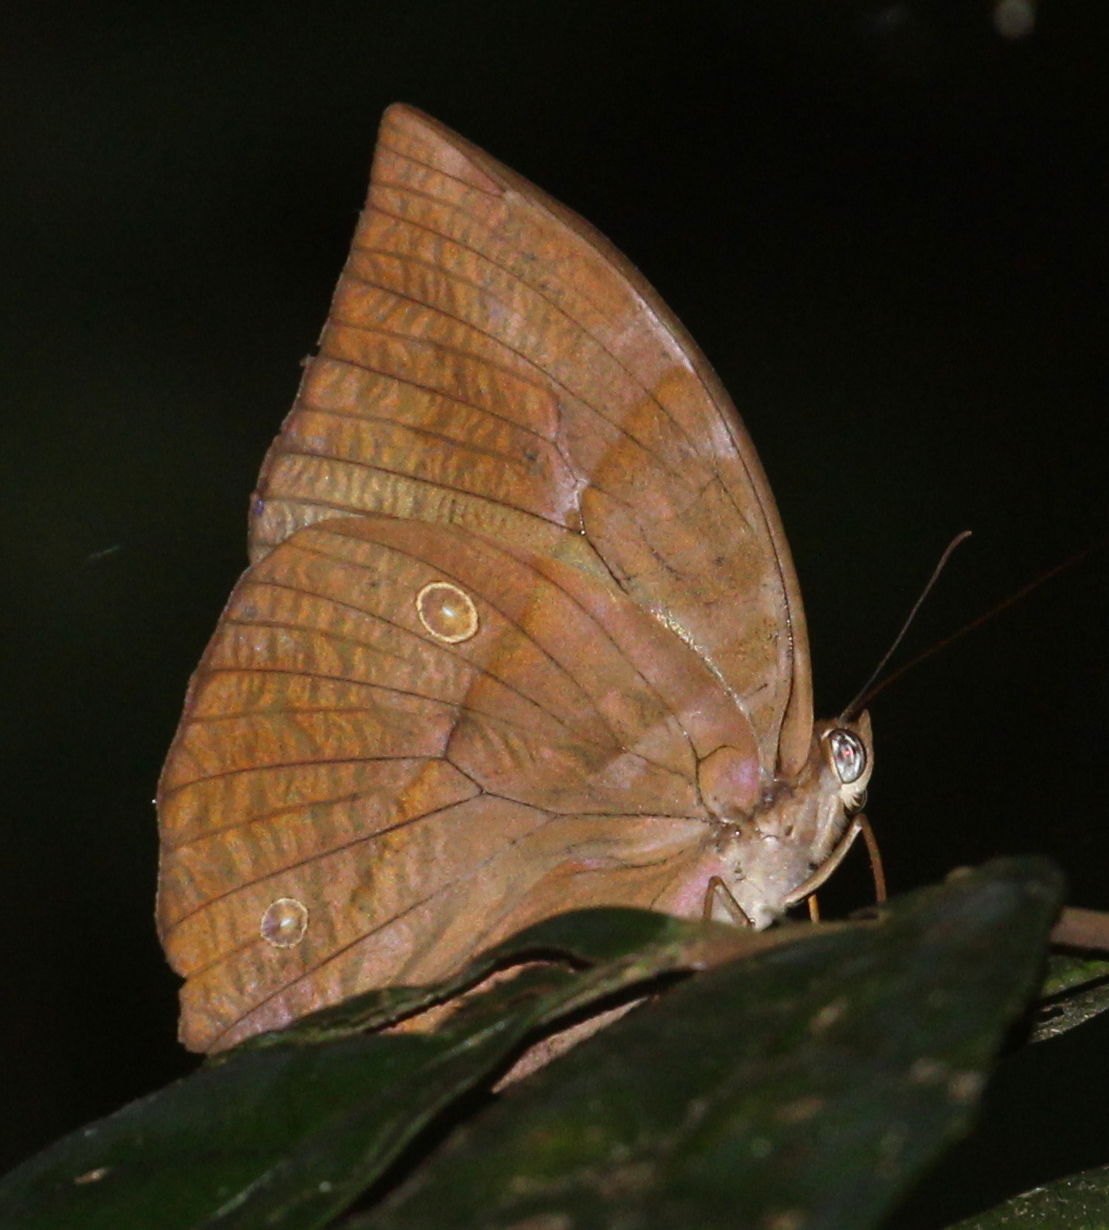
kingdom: Animalia
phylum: Arthropoda
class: Insecta
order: Lepidoptera
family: Nymphalidae
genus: Zeuxidia
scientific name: Zeuxidia amethysta
